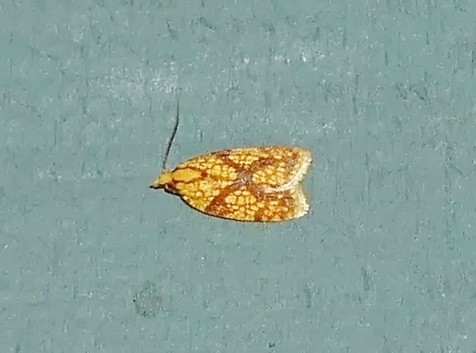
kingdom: Animalia
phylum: Arthropoda
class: Insecta
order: Lepidoptera
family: Tortricidae
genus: Sparganothis
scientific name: Sparganothis sulfureana
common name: Sparganothis fruitworm moth
